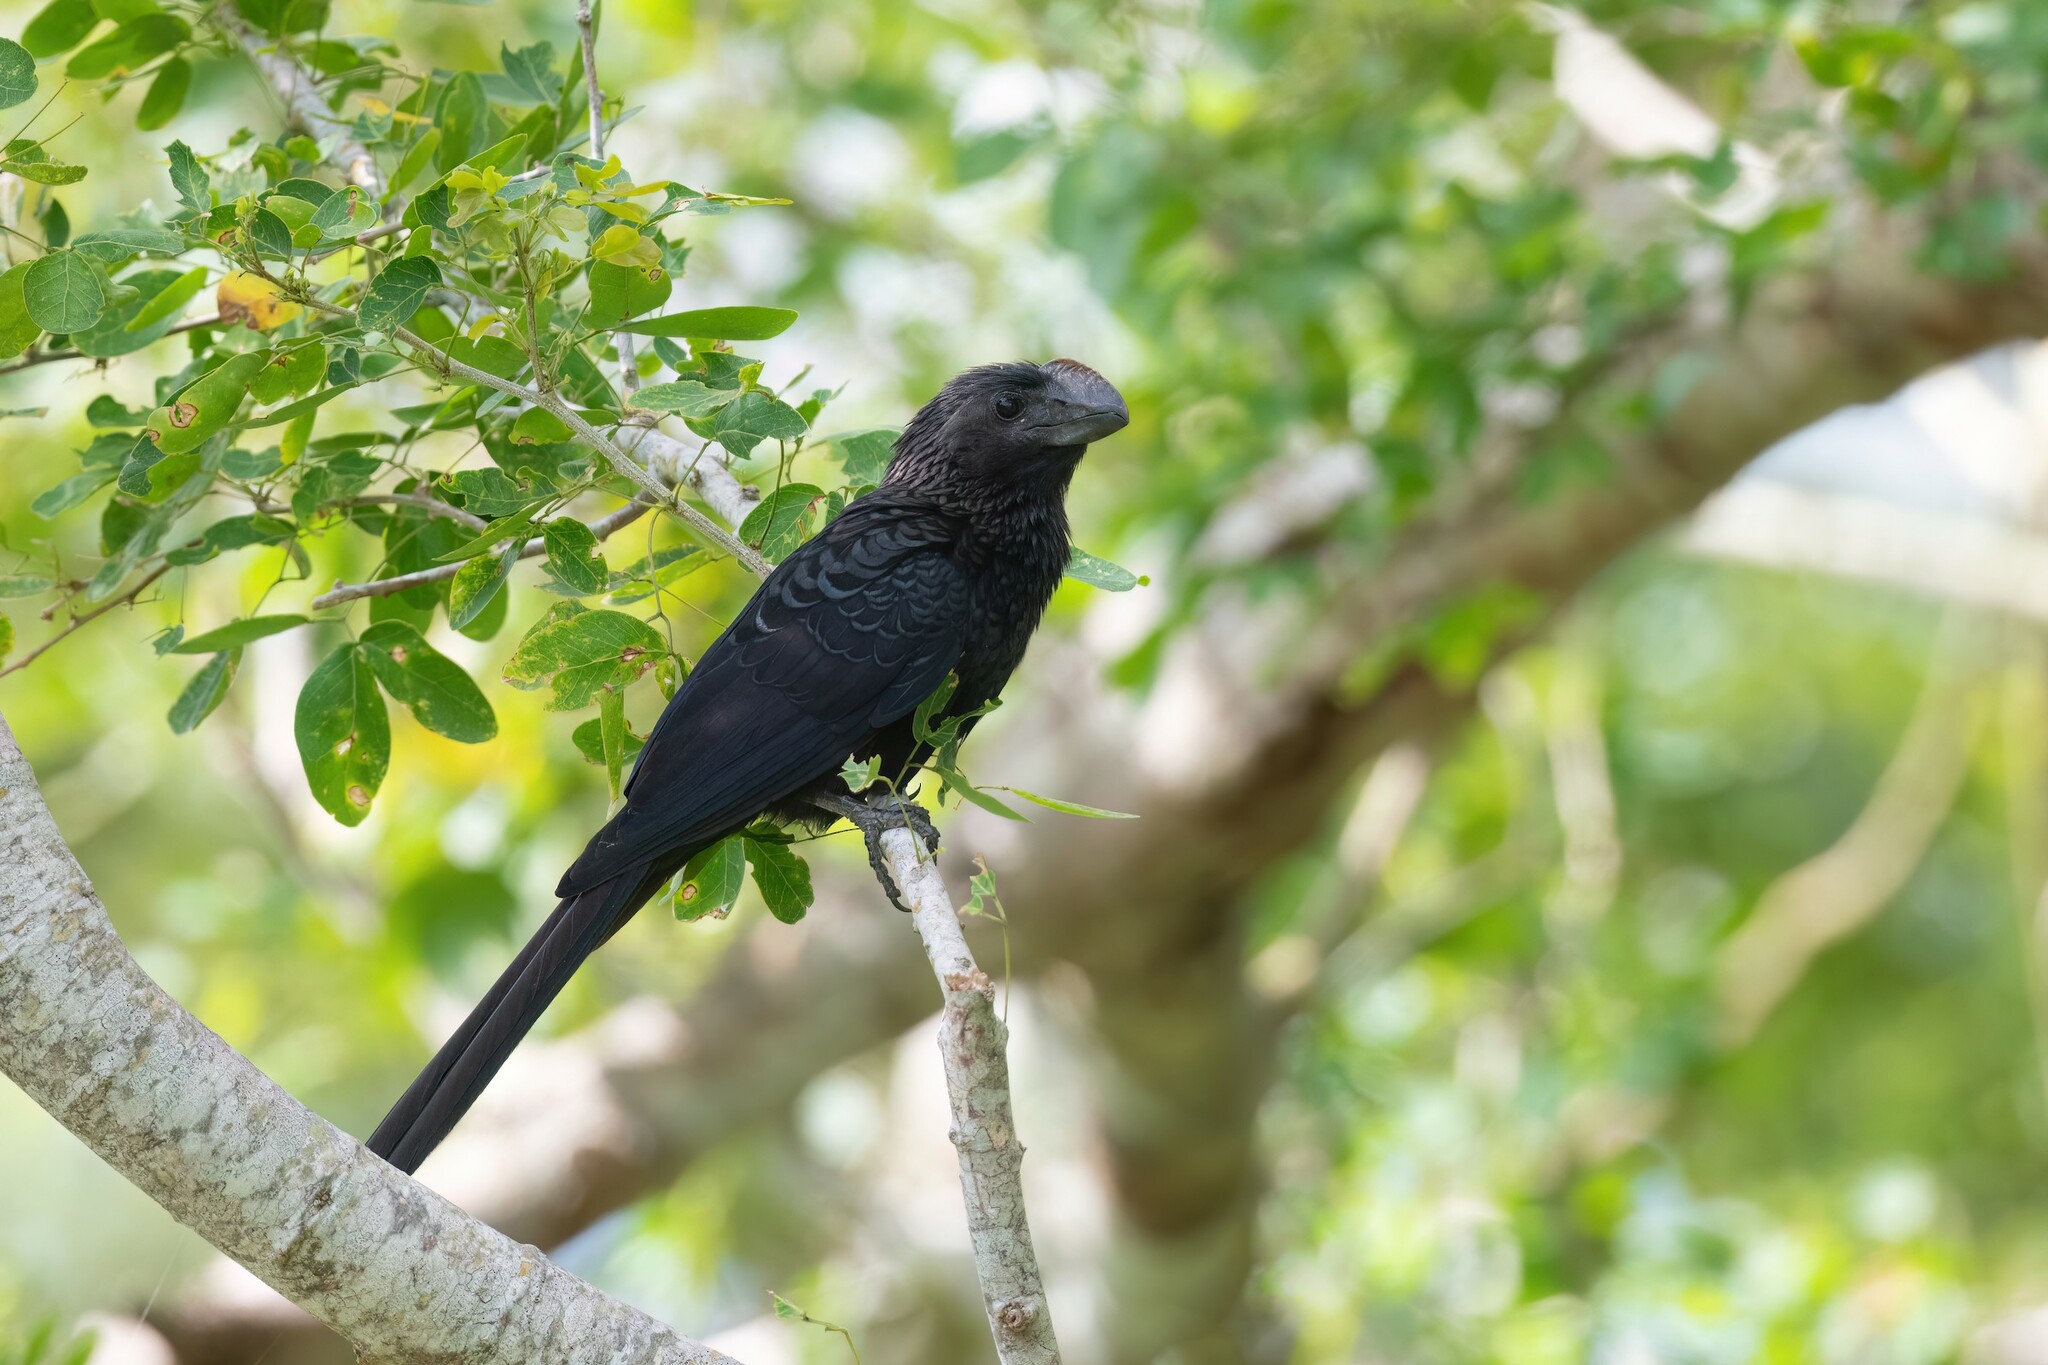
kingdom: Animalia
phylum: Chordata
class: Aves
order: Cuculiformes
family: Cuculidae
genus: Crotophaga
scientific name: Crotophaga ani
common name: Smooth-billed ani
